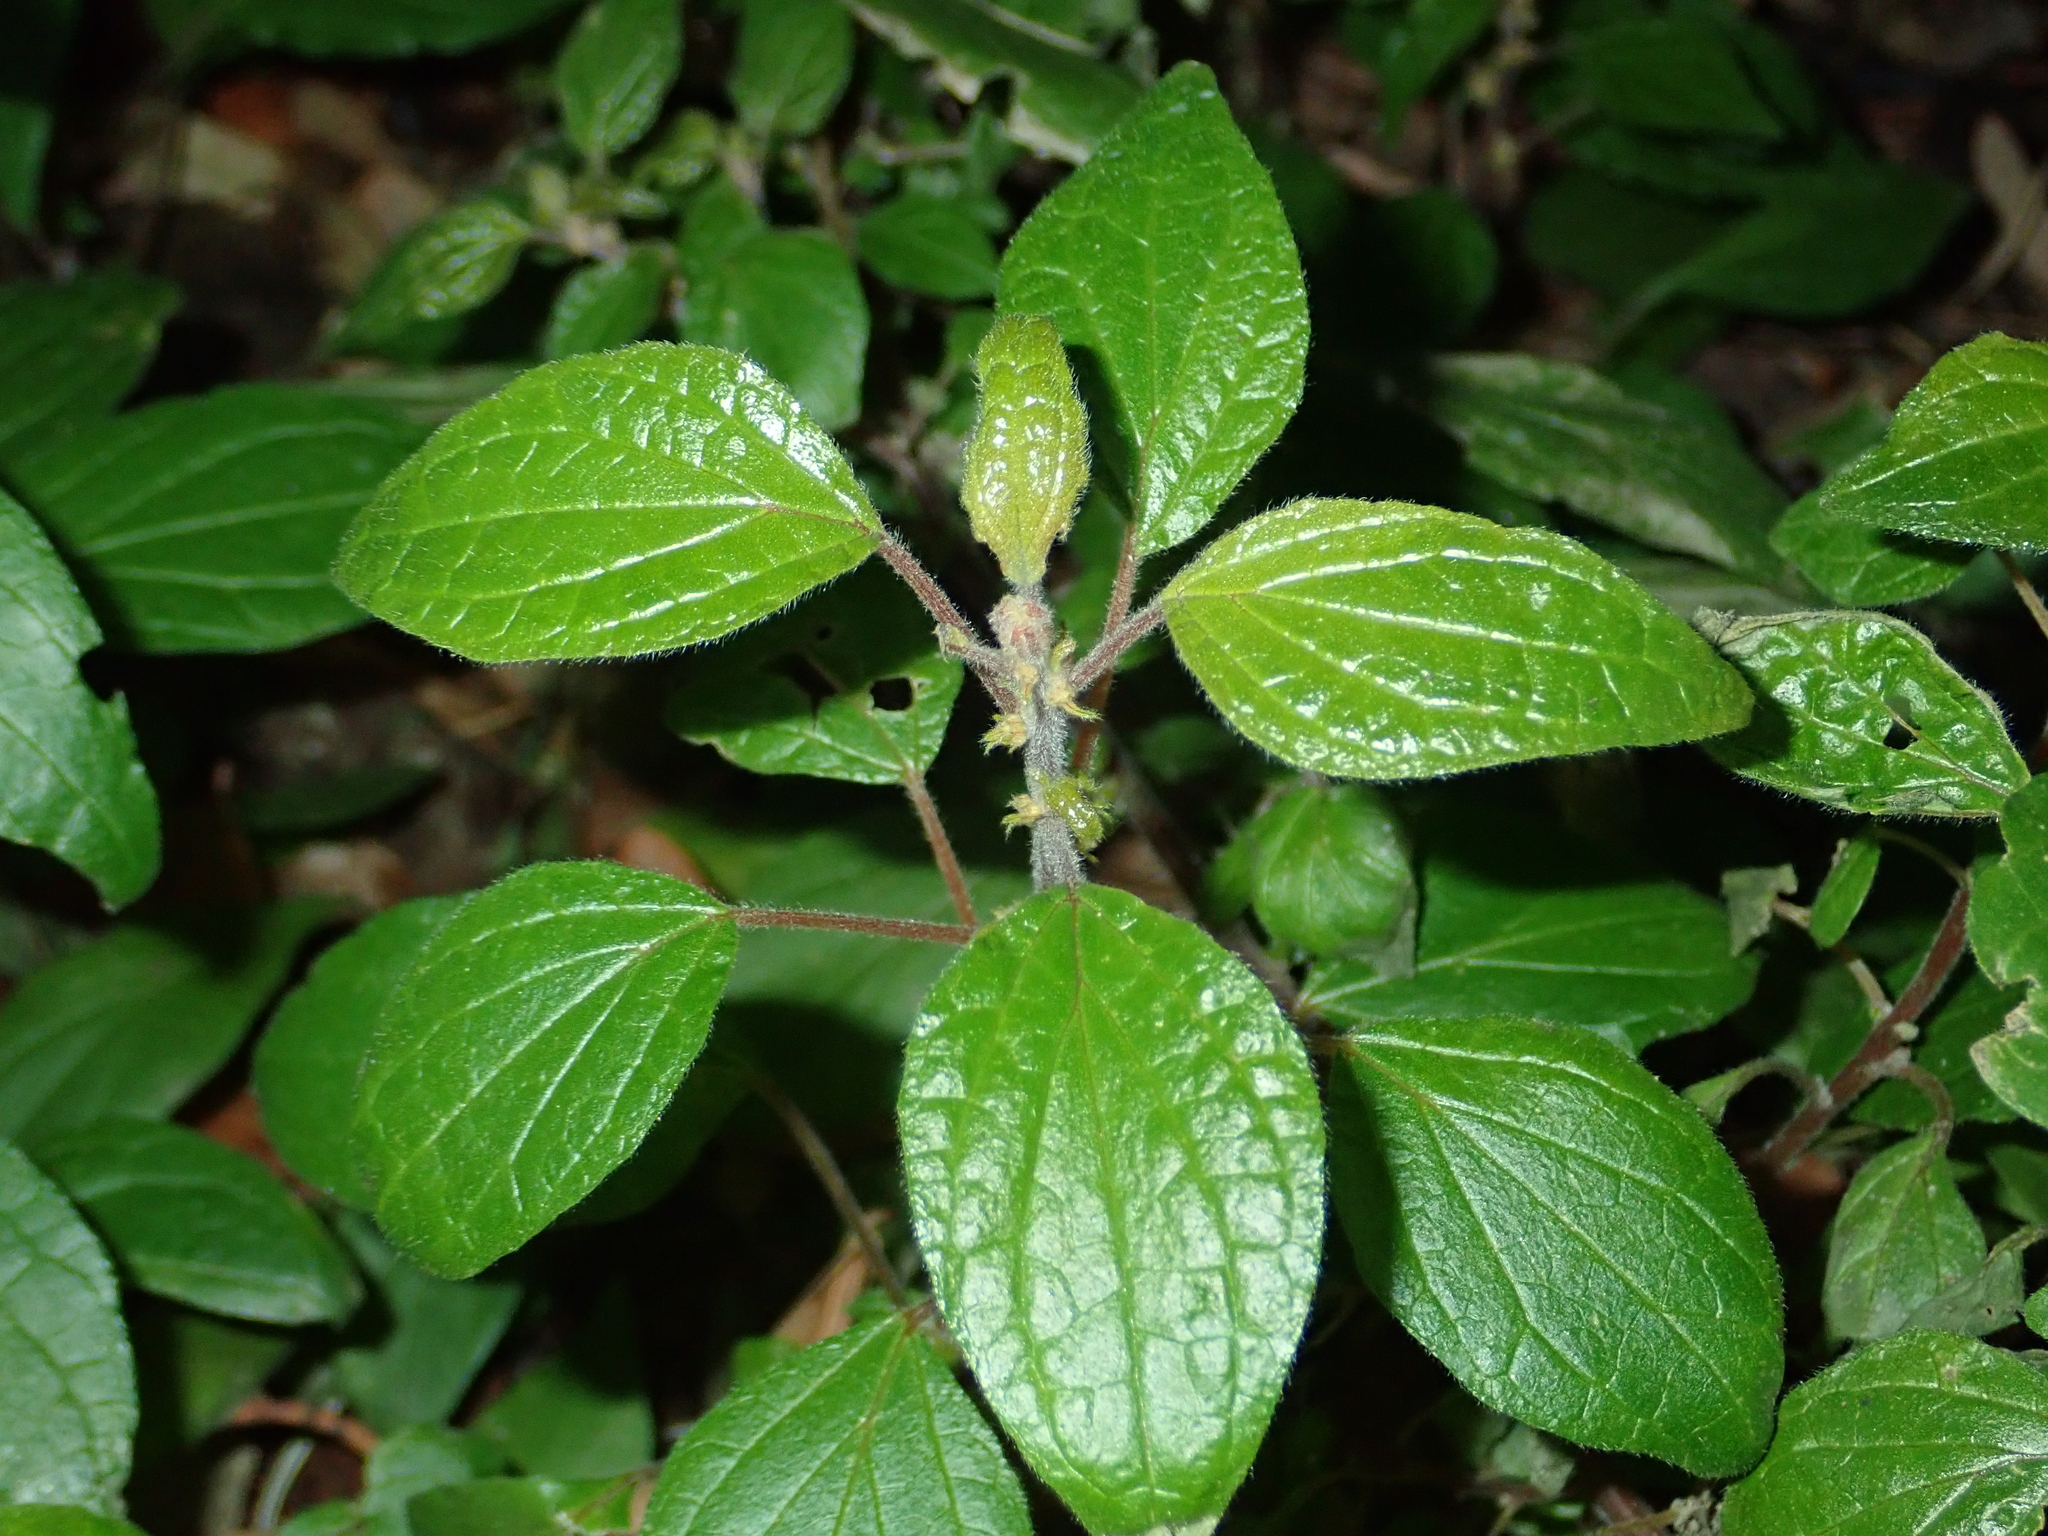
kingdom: Plantae
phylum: Tracheophyta
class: Magnoliopsida
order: Rosales
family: Urticaceae
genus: Parietaria
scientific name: Parietaria officinalis
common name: Eastern pellitory-of-the-wall
